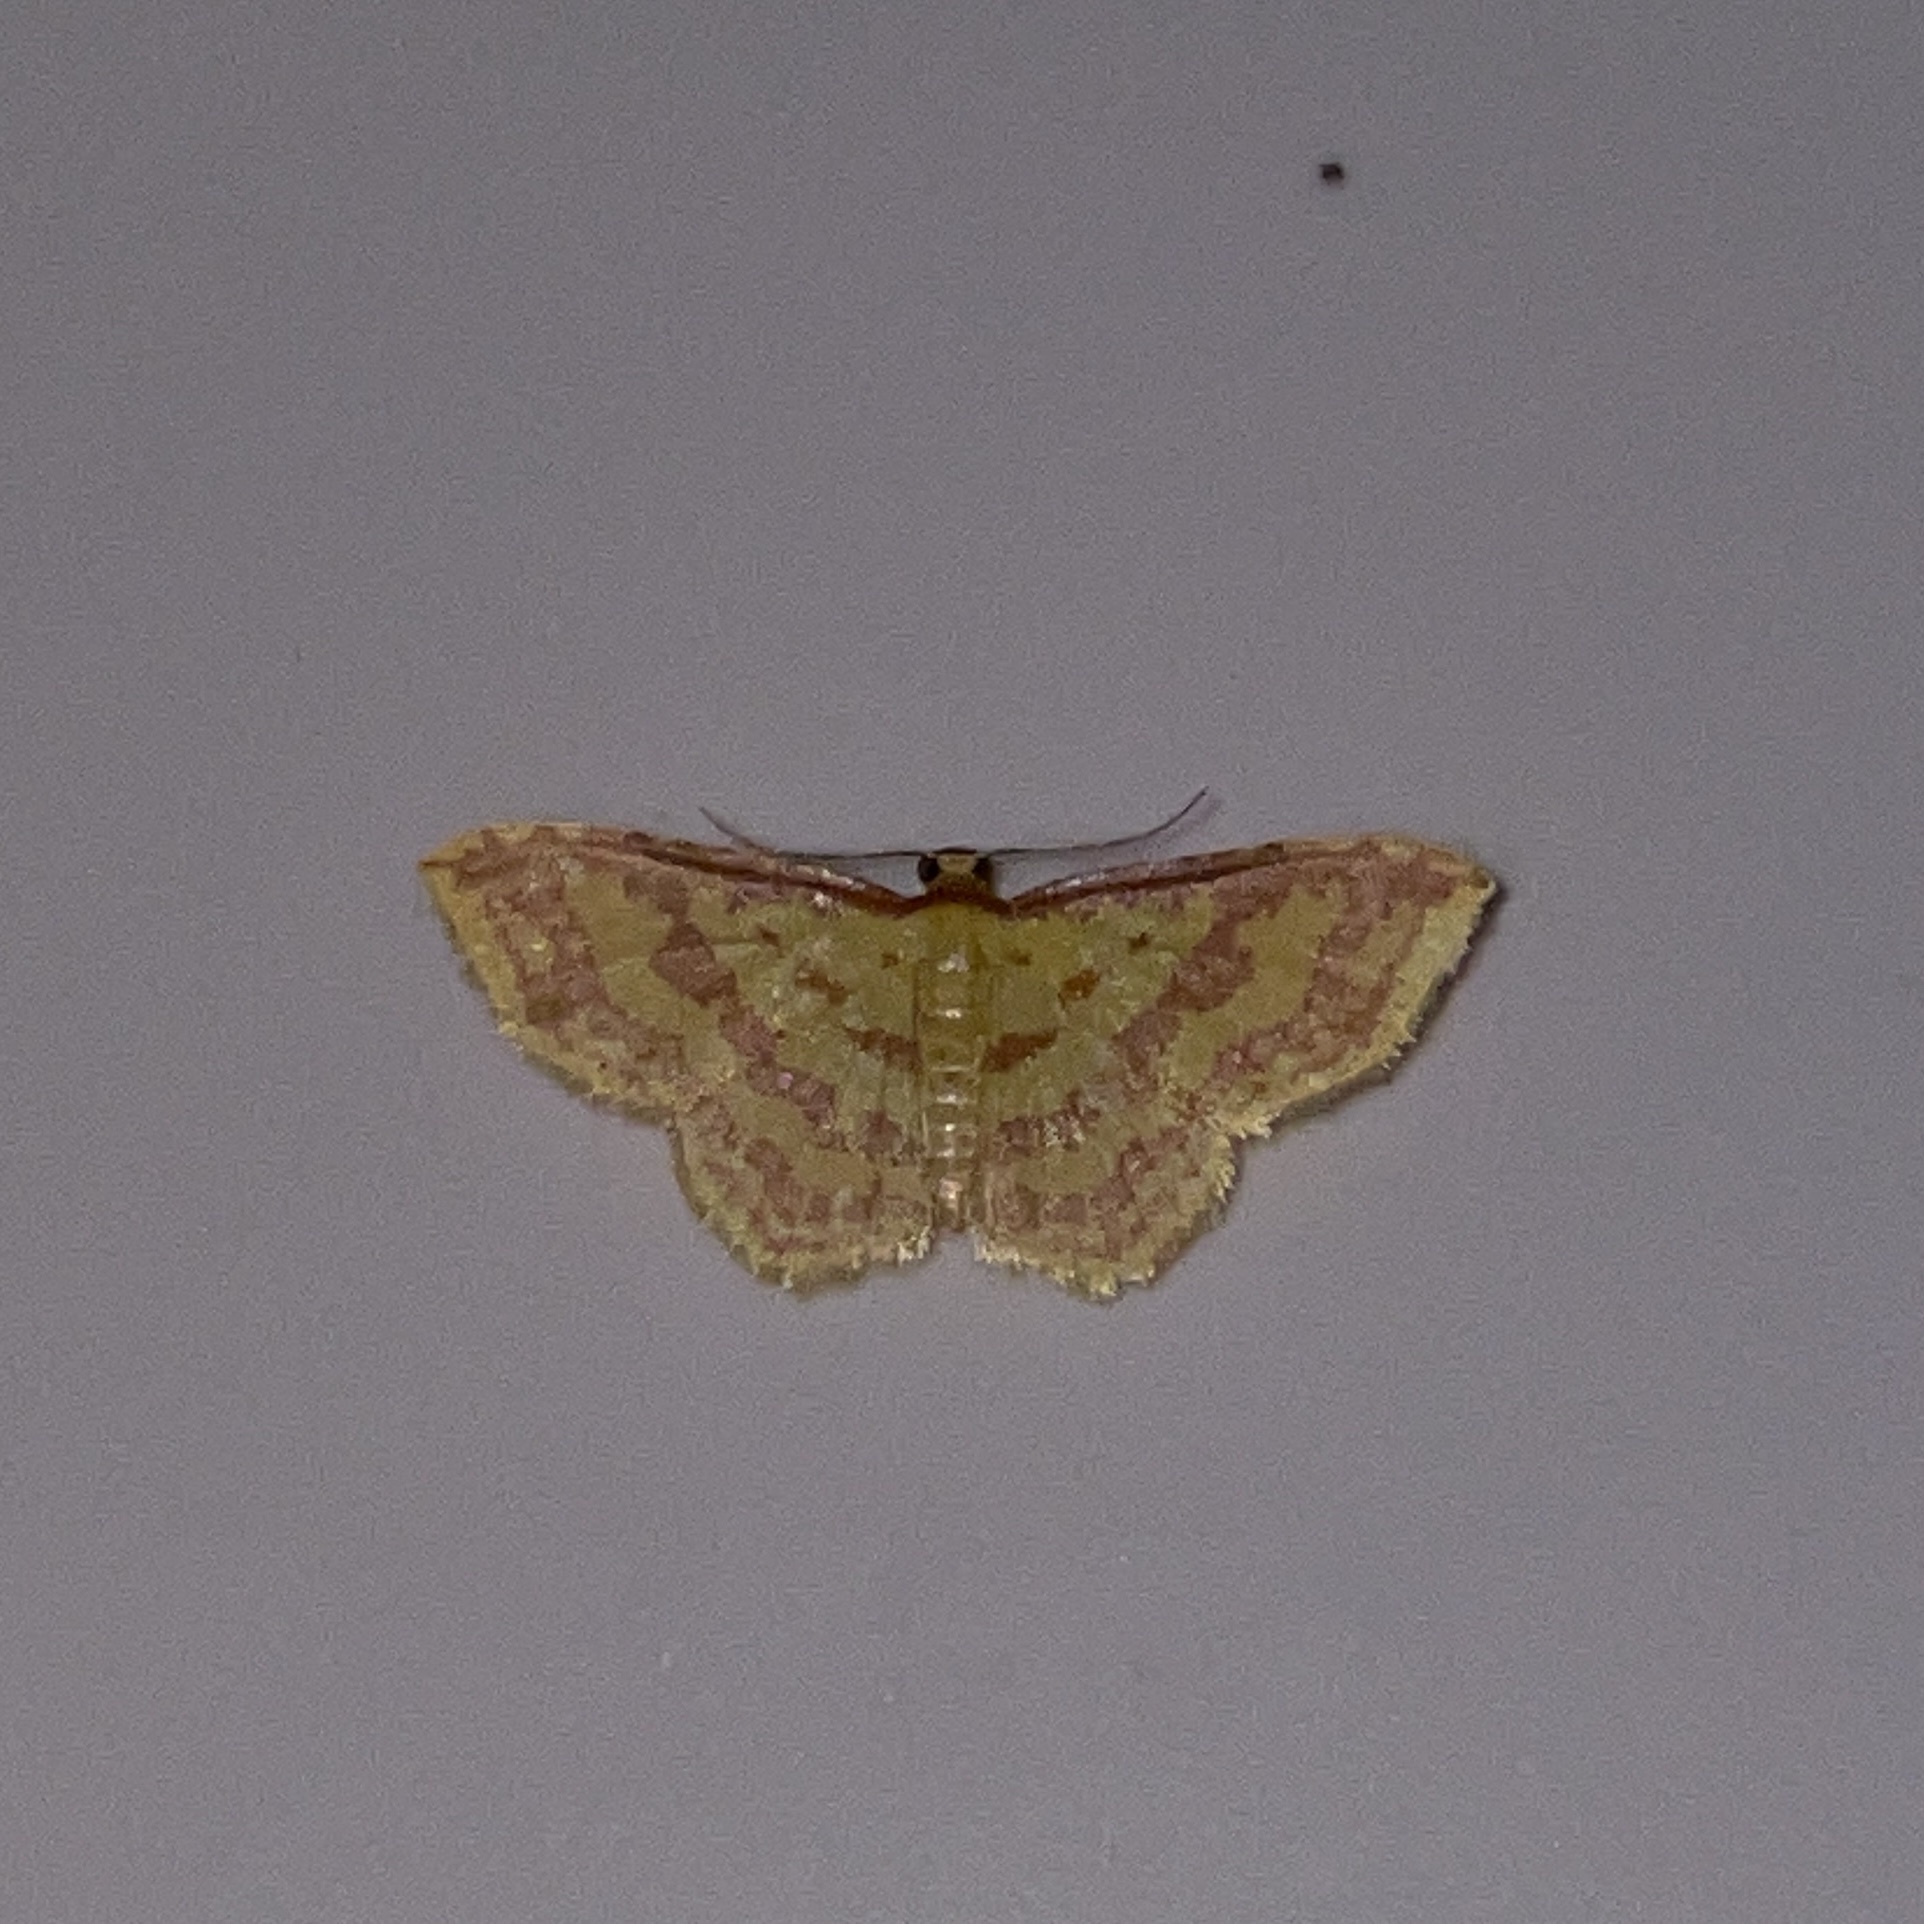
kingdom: Animalia
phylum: Arthropoda
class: Insecta
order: Lepidoptera
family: Geometridae
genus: Eois
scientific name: Eois binaria
